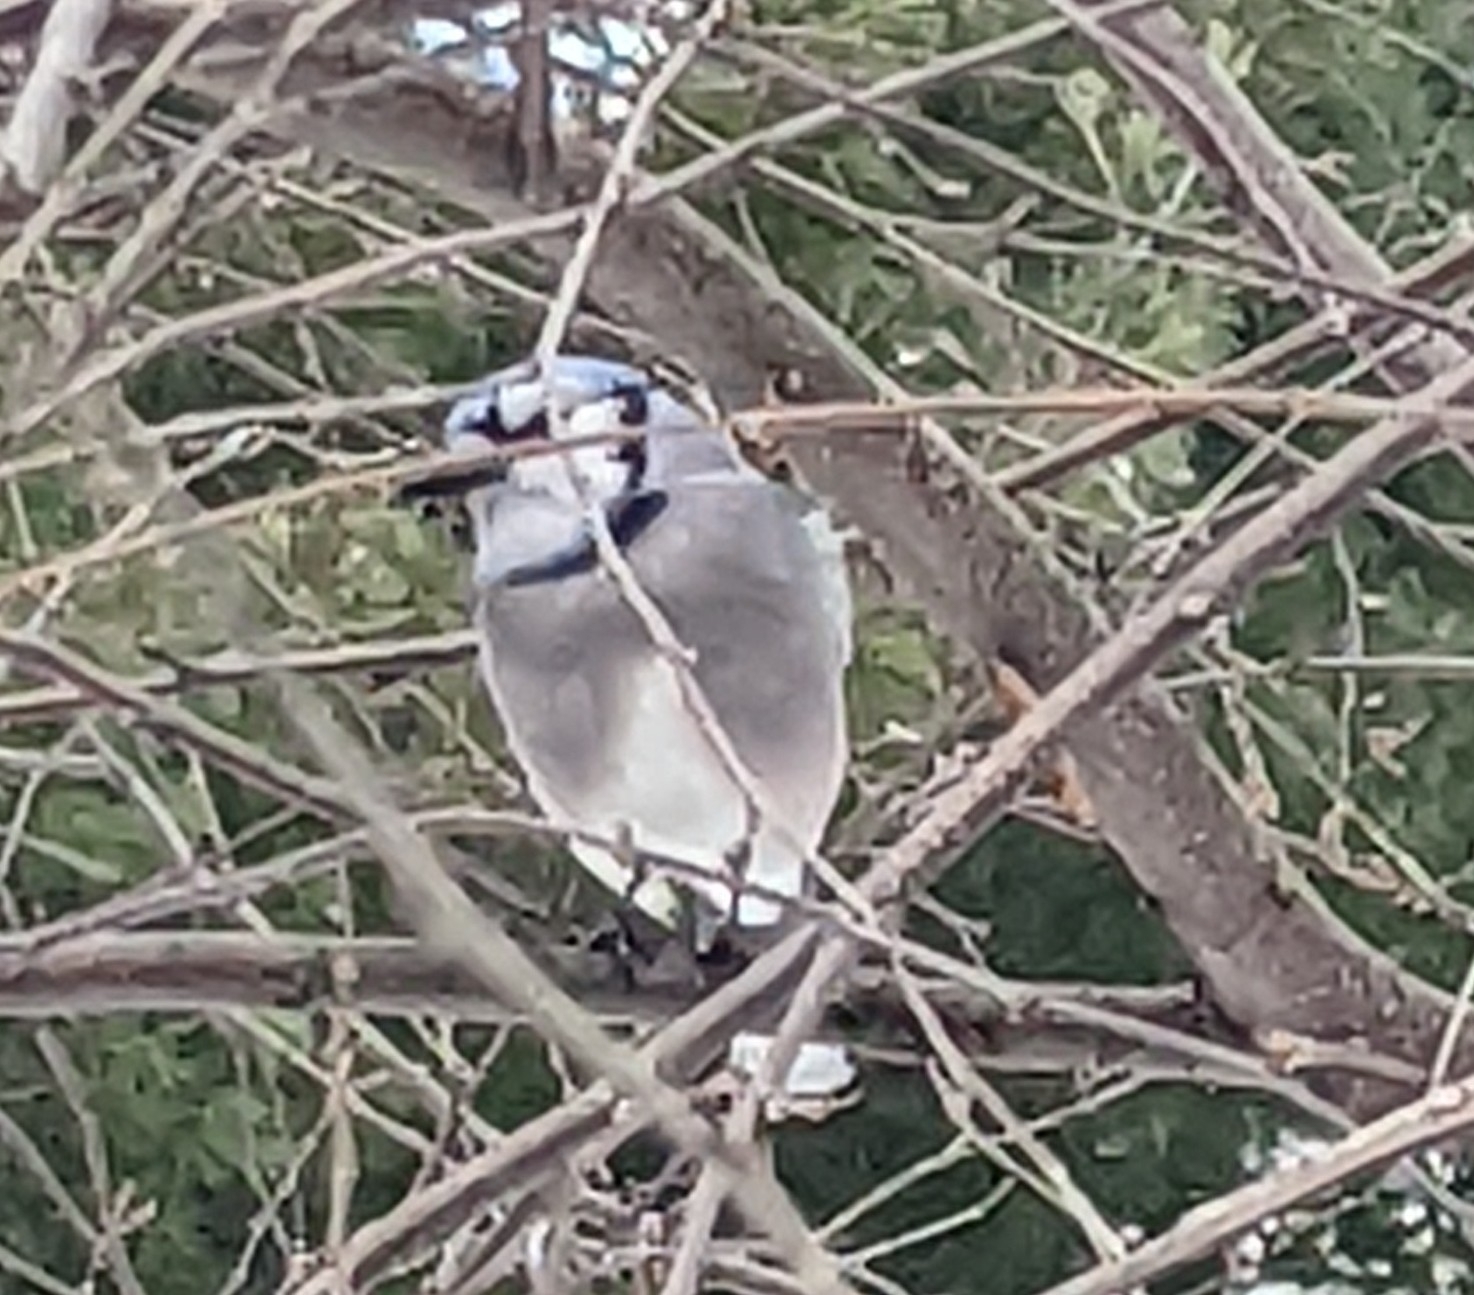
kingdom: Animalia
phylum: Chordata
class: Aves
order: Passeriformes
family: Corvidae
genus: Cyanocitta
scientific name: Cyanocitta cristata
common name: Blue jay
